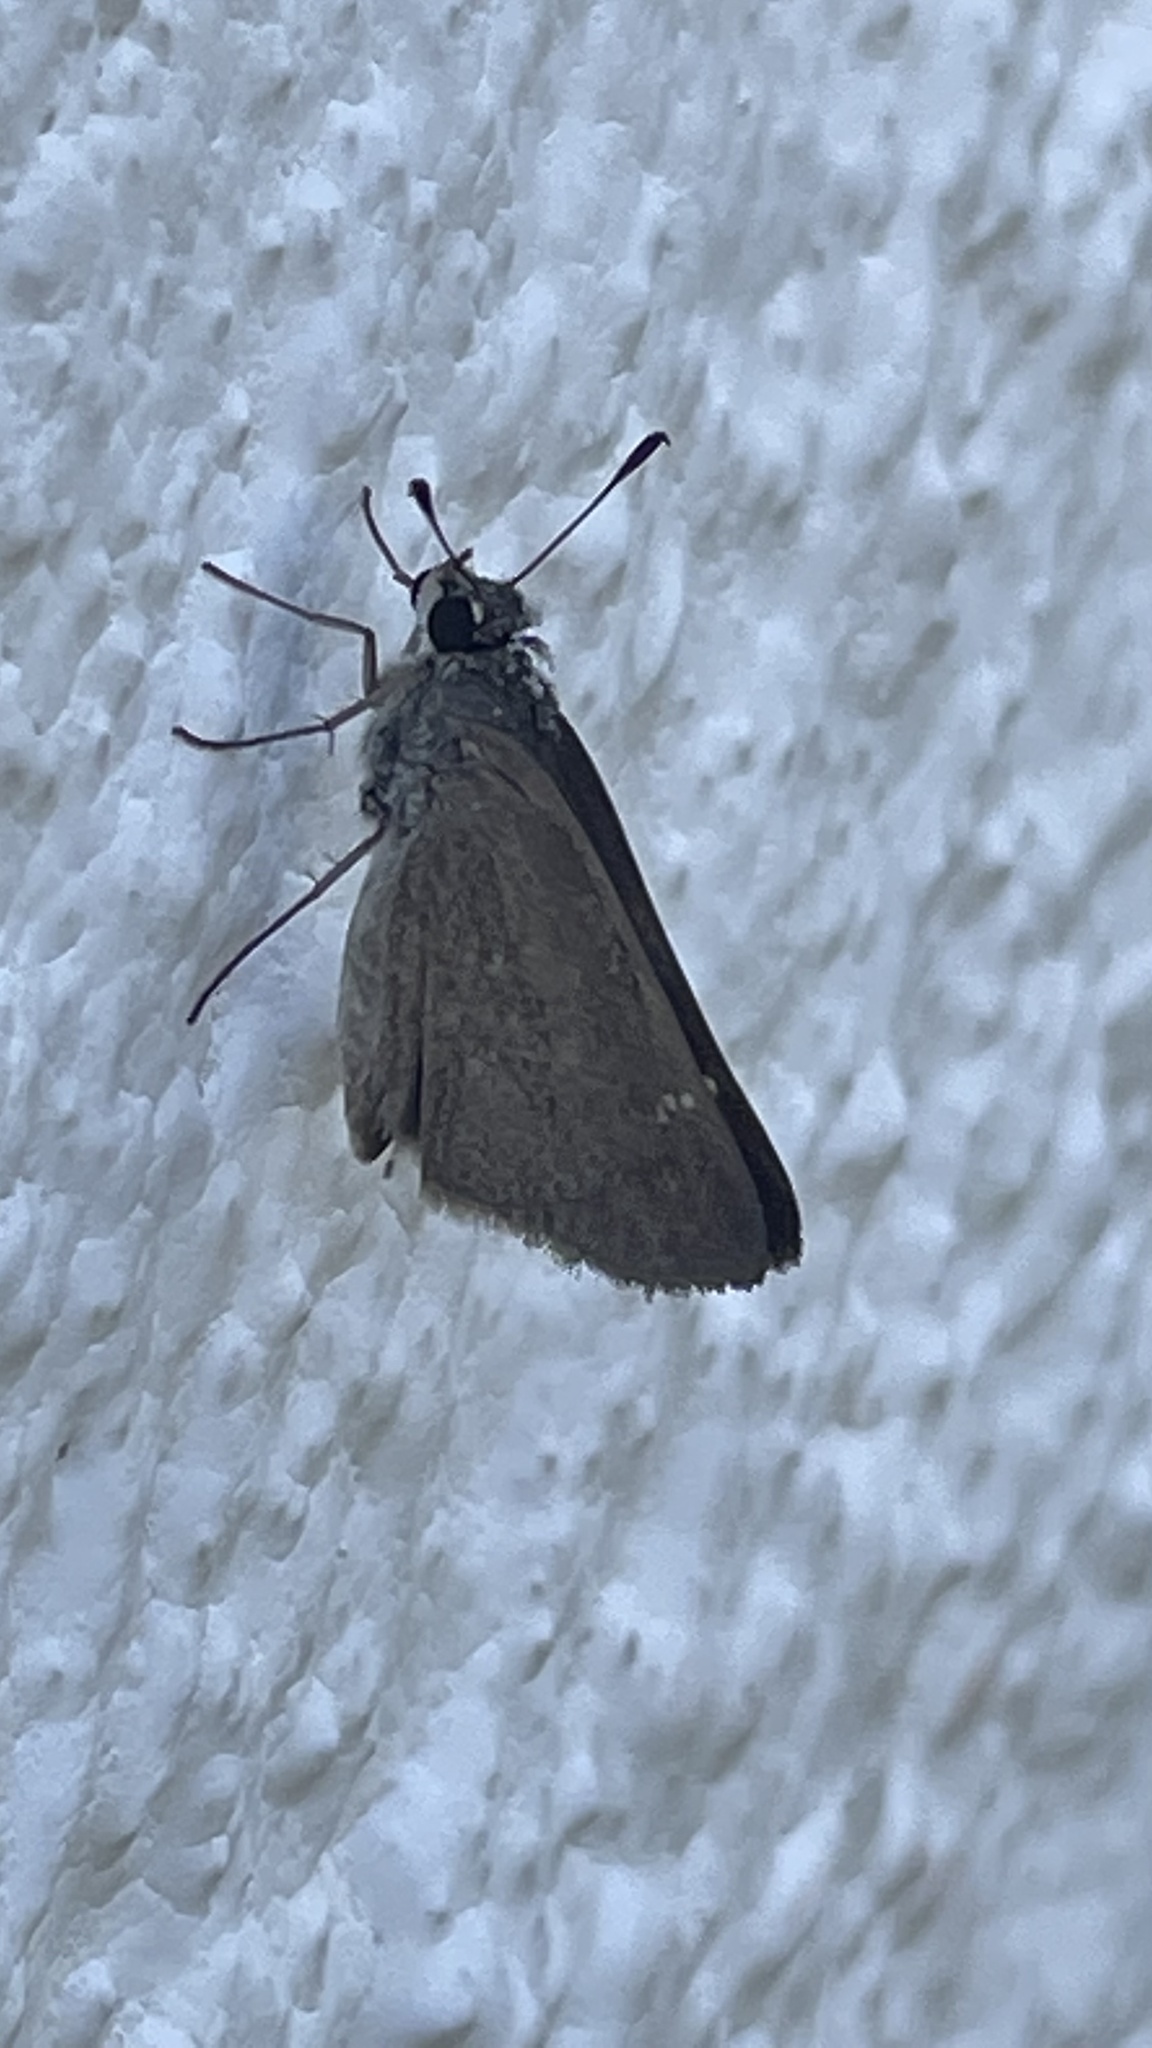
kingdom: Animalia
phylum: Arthropoda
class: Insecta
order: Lepidoptera
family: Hesperiidae
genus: Lerodea
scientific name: Lerodea eufala
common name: Eufala skipper
